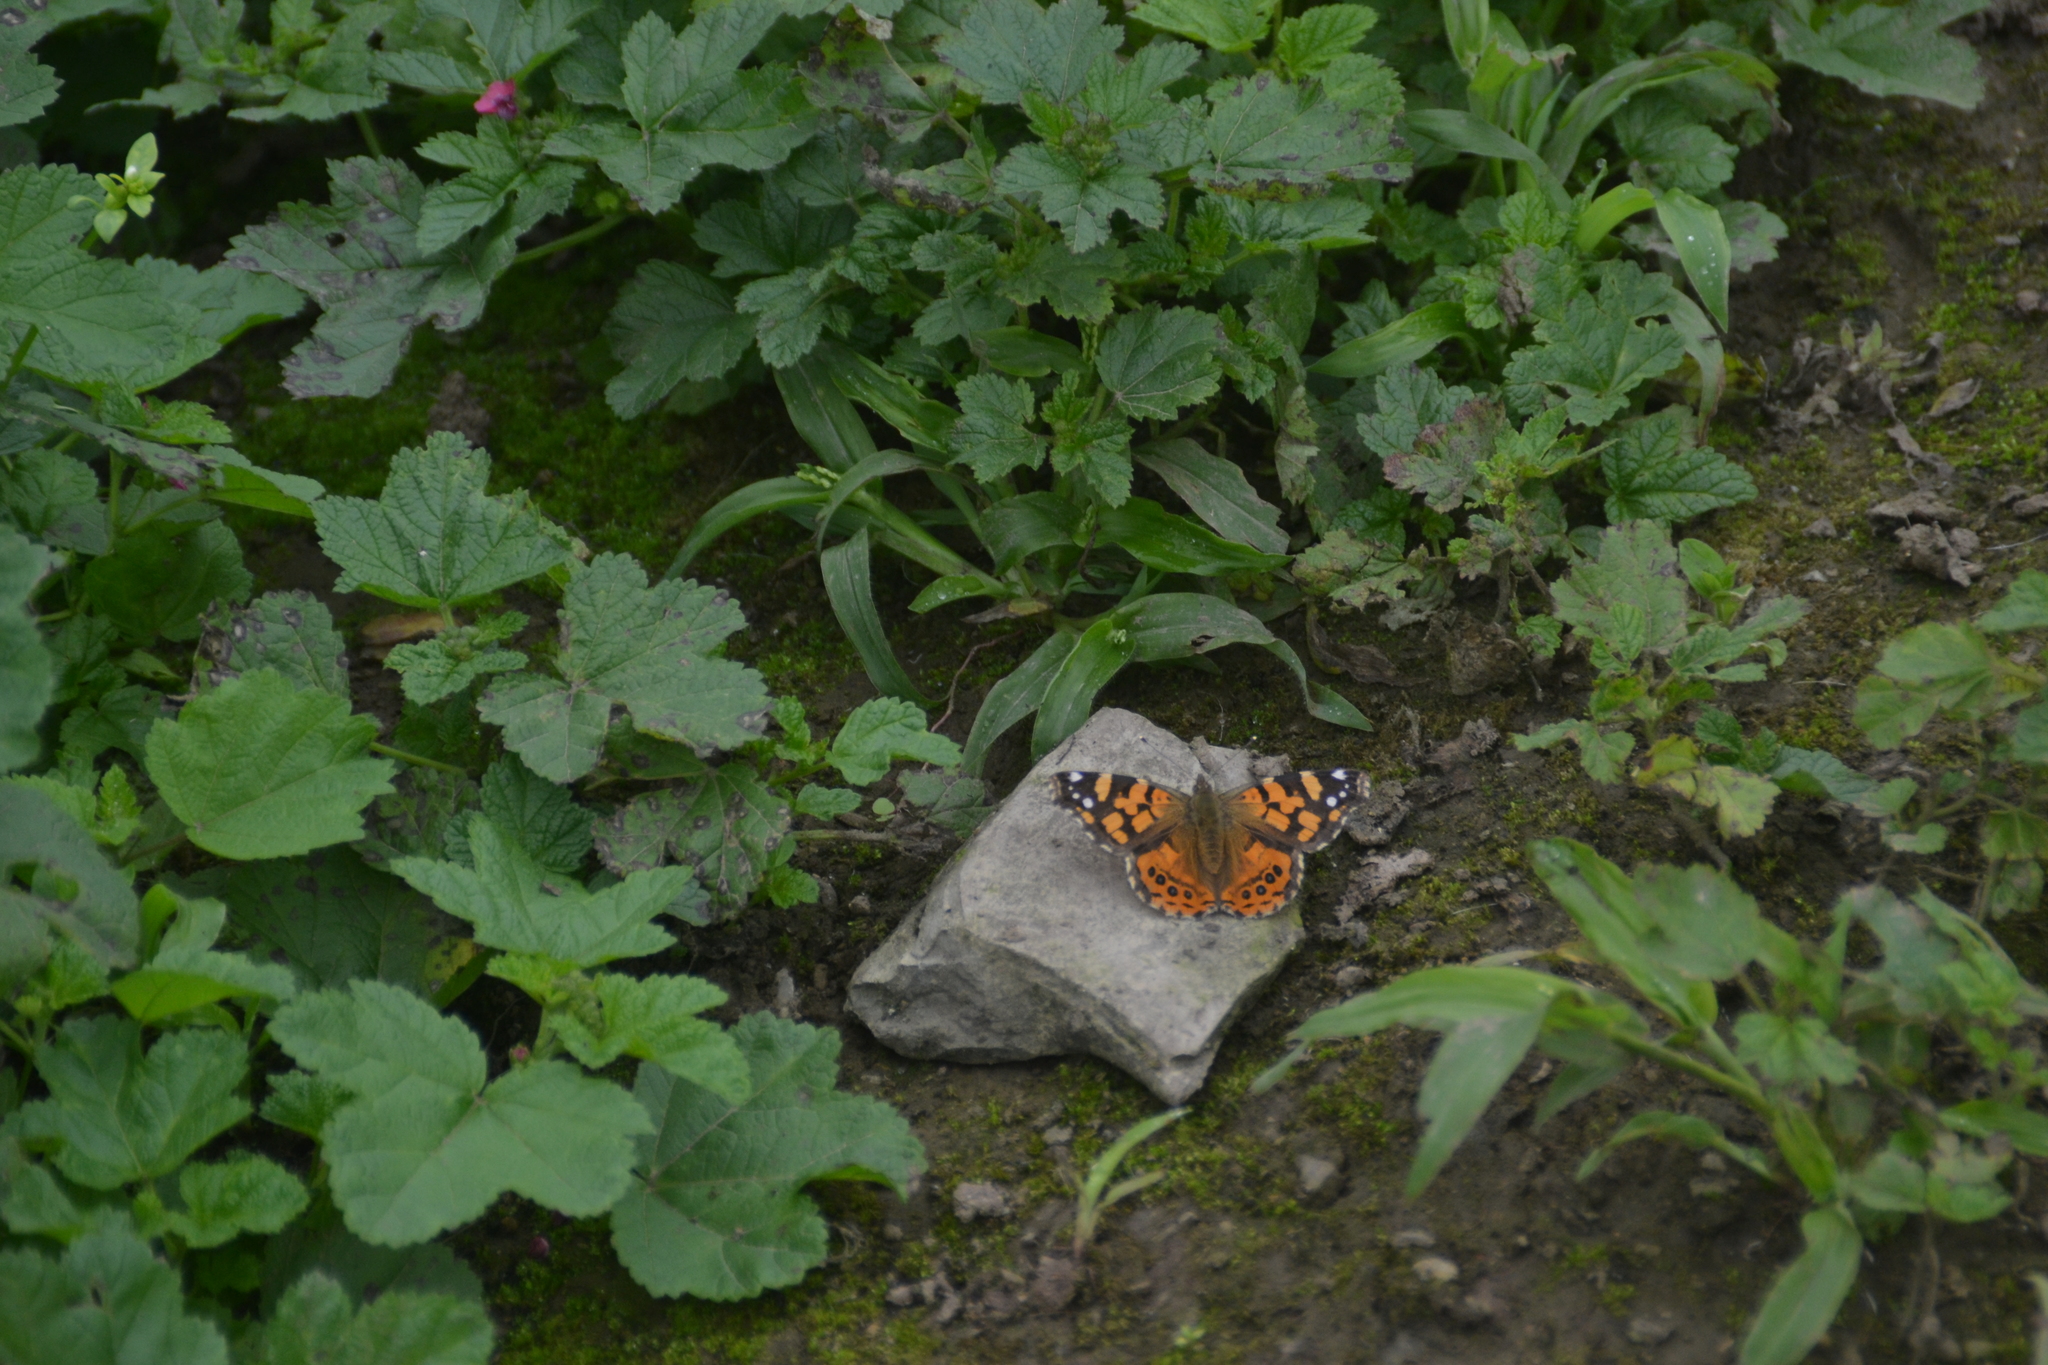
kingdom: Animalia
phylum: Arthropoda
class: Insecta
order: Lepidoptera
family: Nymphalidae
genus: Vanessa
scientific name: Vanessa carye
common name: Subtropical lady
